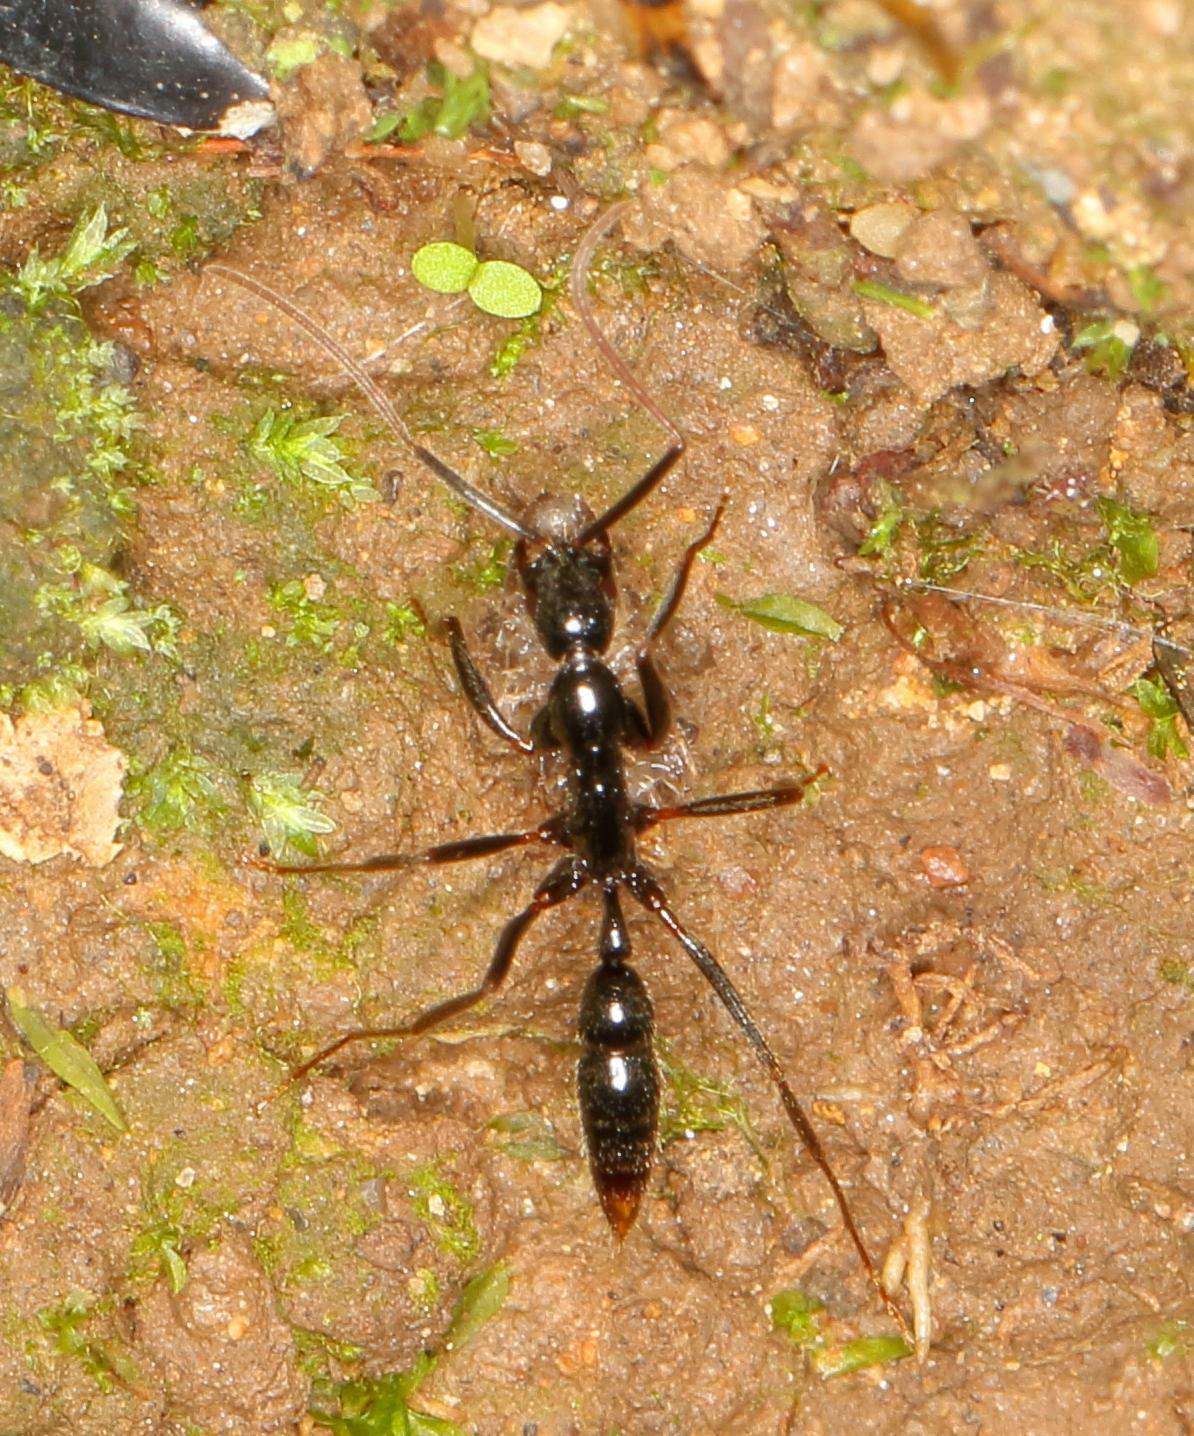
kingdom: Animalia
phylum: Arthropoda
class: Insecta
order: Hymenoptera
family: Formicidae
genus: Leptogenys
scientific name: Leptogenys attenuata
